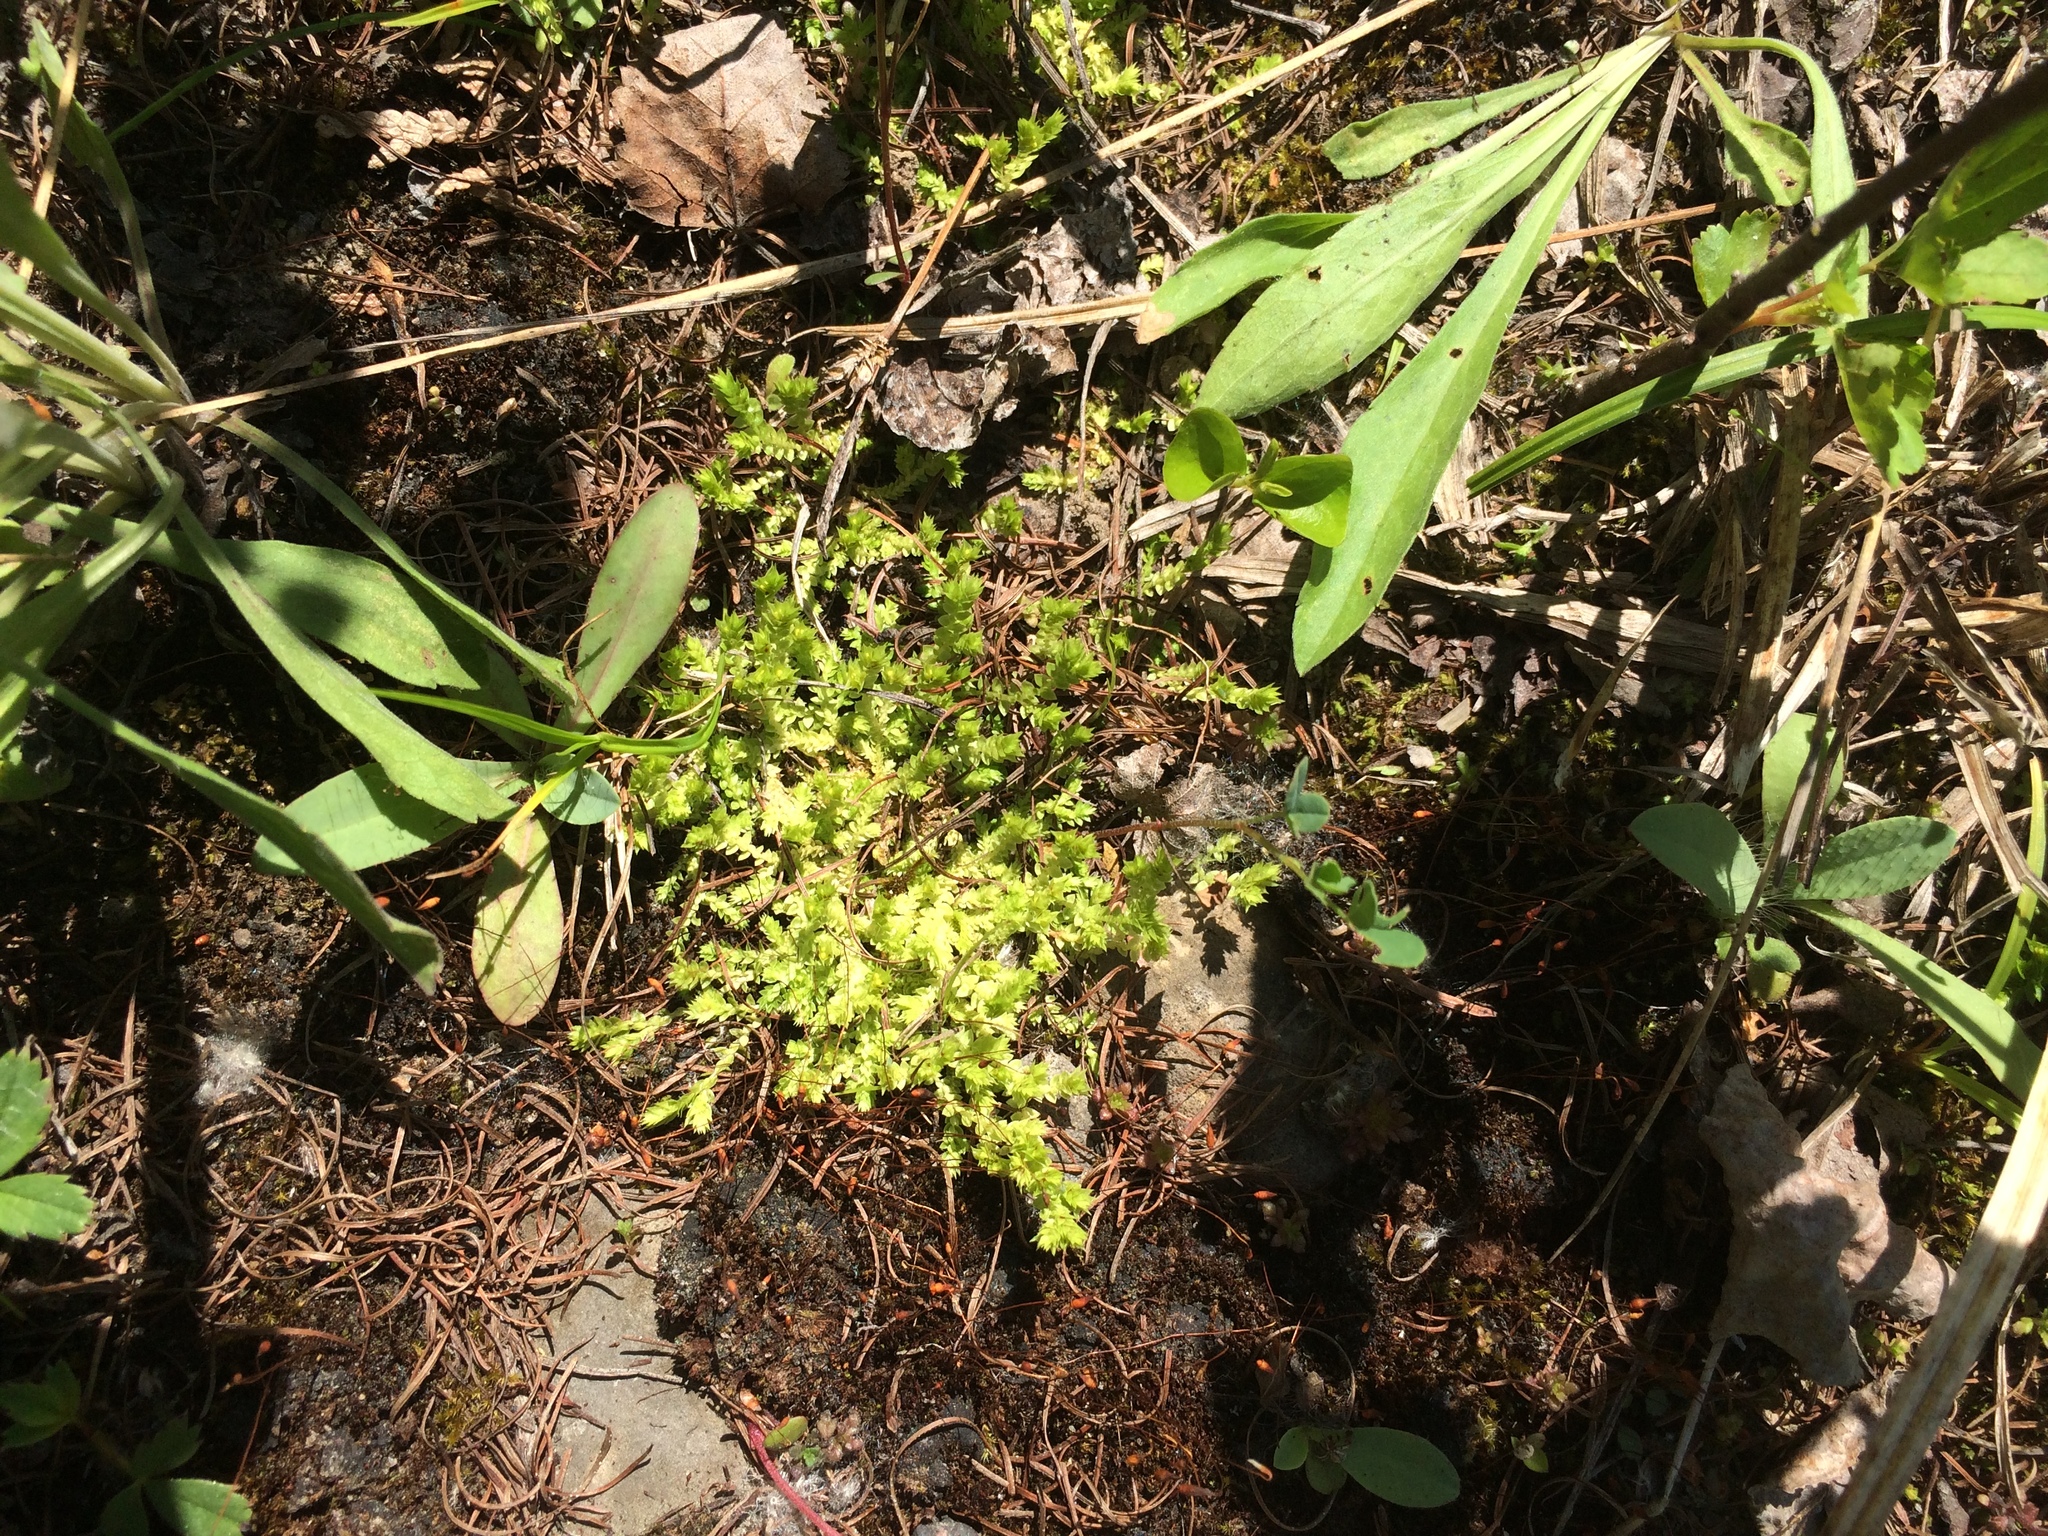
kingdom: Plantae
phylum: Tracheophyta
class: Lycopodiopsida
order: Selaginellales
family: Selaginellaceae
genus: Selaginella
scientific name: Selaginella eclipes
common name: Buck's meadow spikemoss
